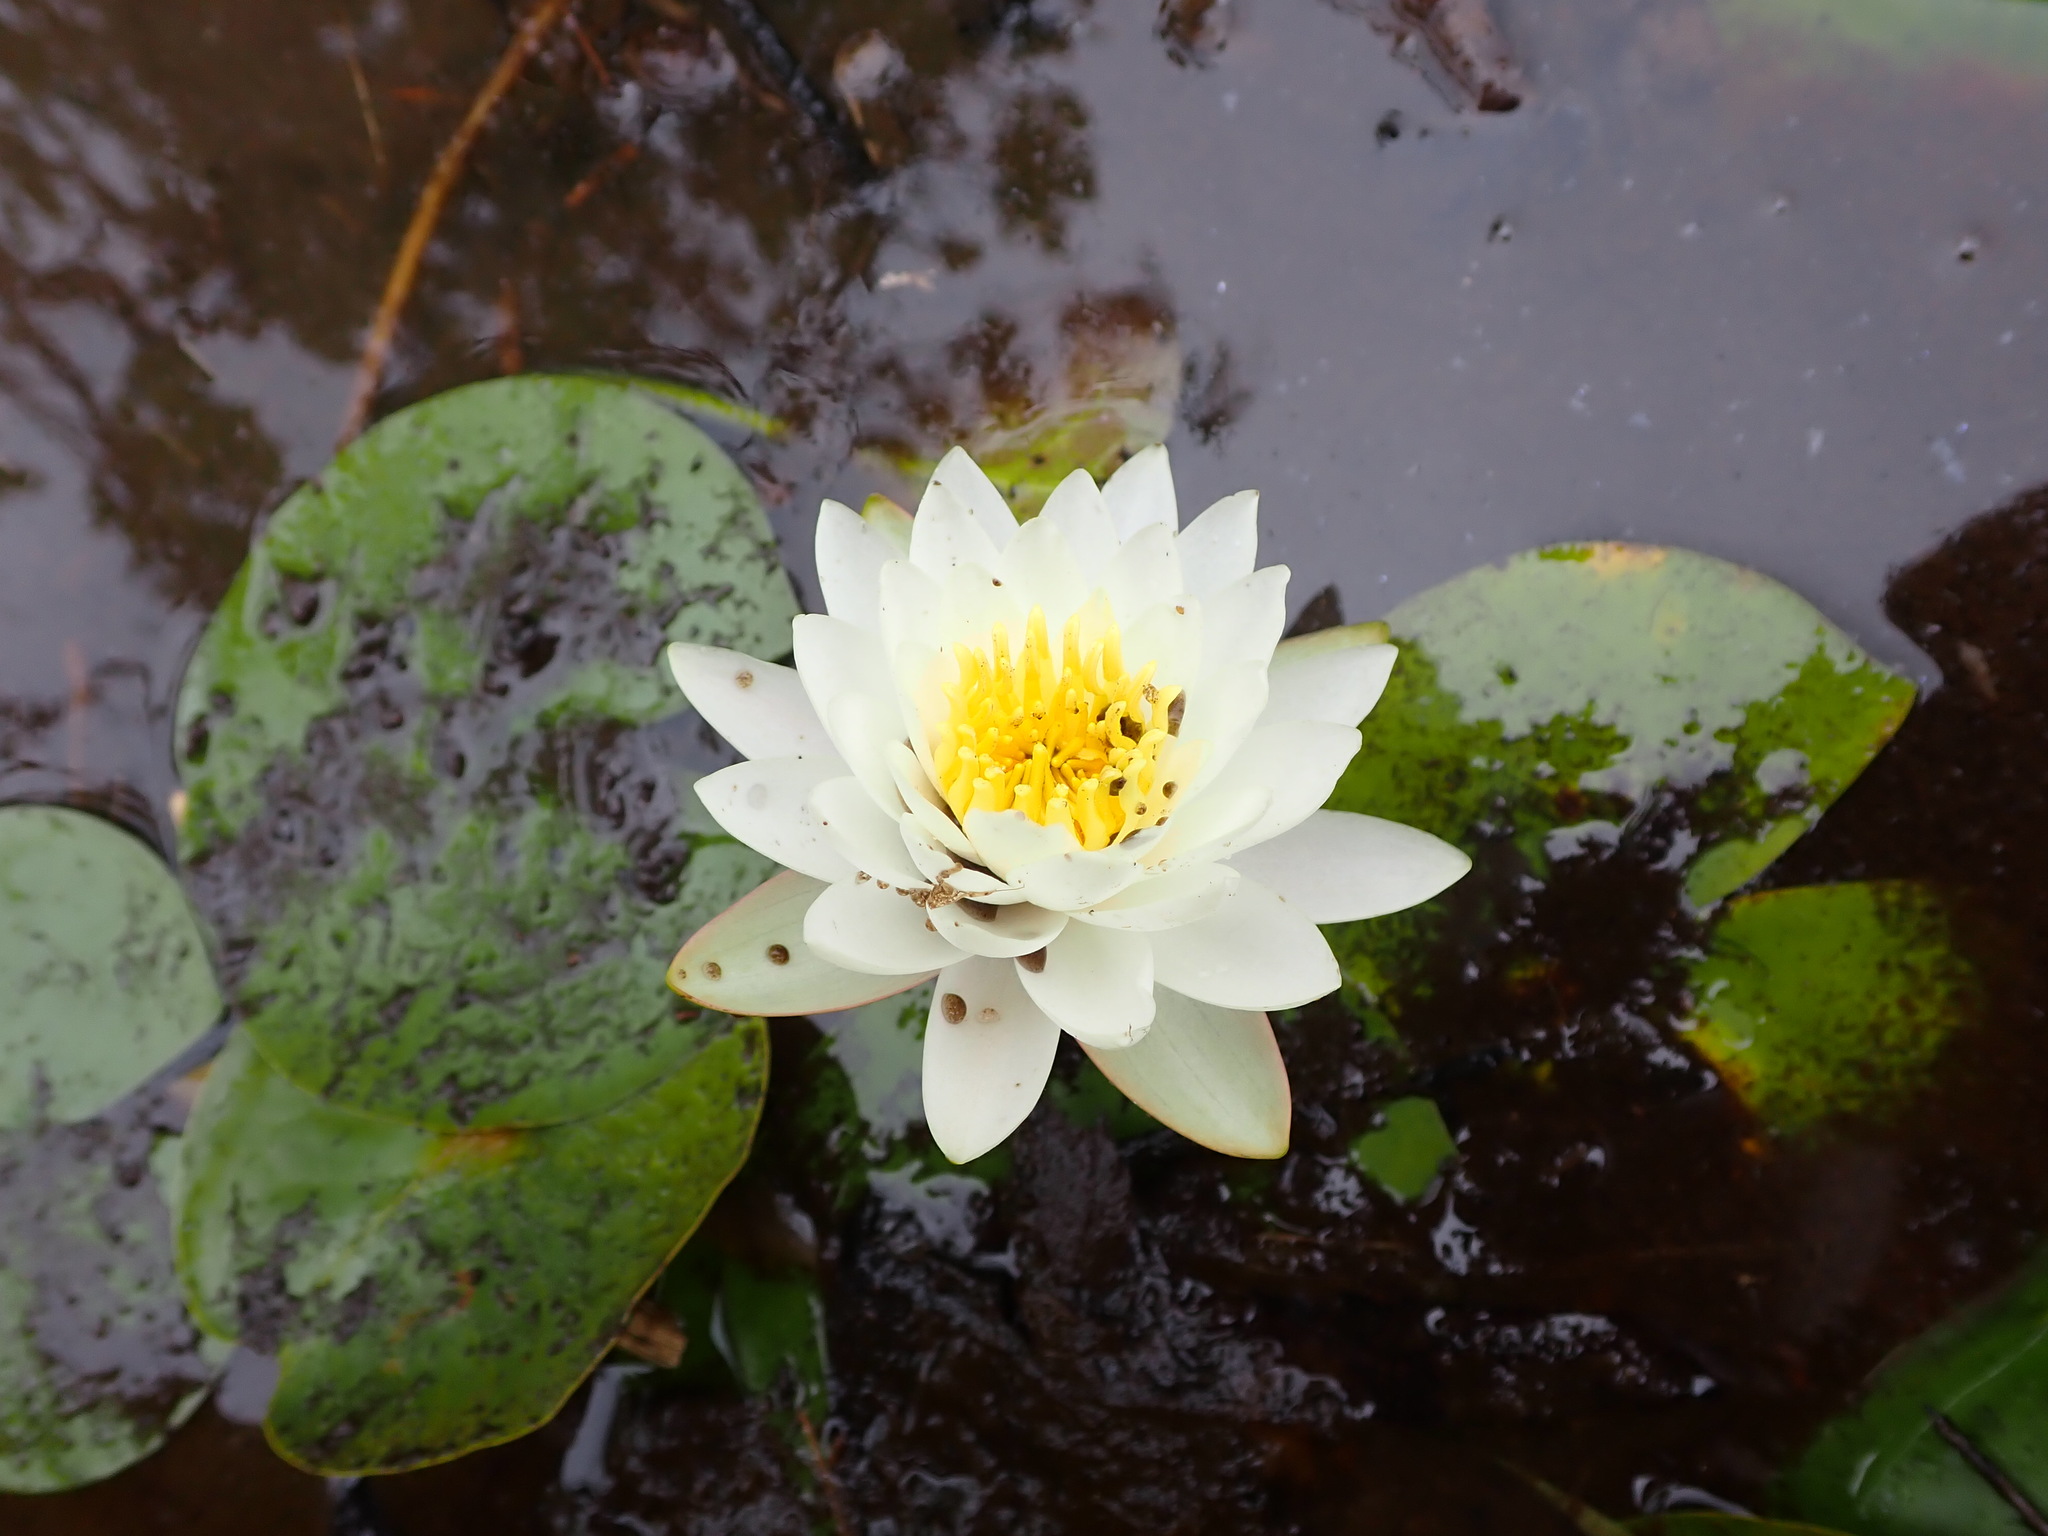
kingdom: Plantae
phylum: Tracheophyta
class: Magnoliopsida
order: Nymphaeales
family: Nymphaeaceae
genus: Nymphaea
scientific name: Nymphaea odorata
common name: Fragrant water-lily
